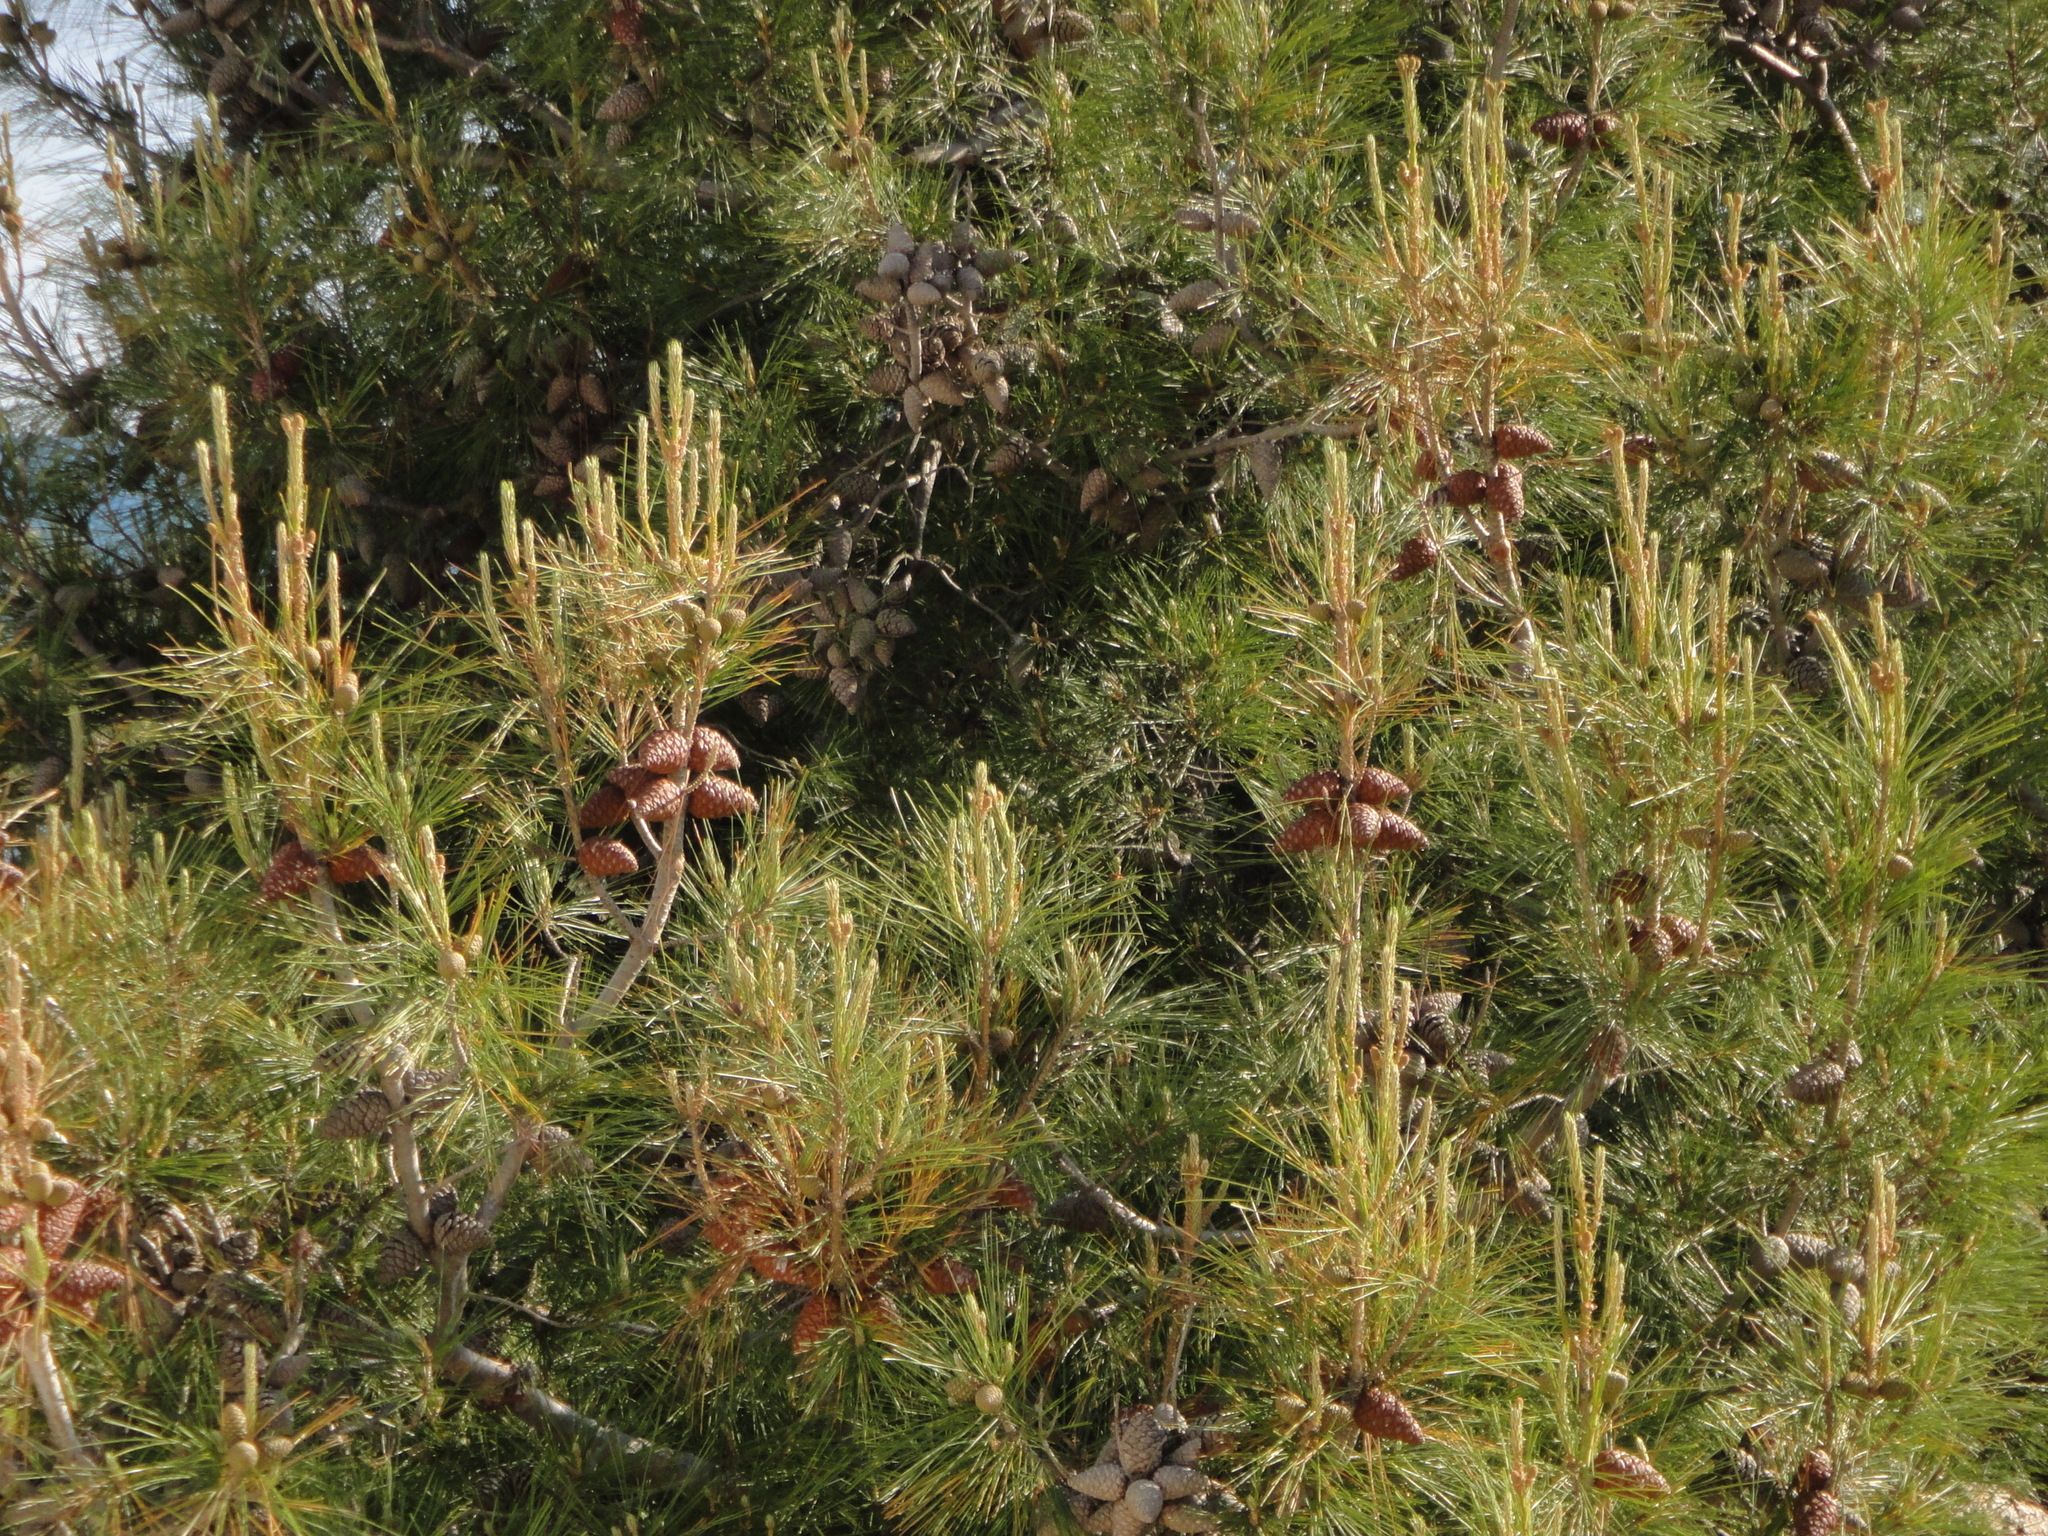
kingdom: Plantae
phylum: Tracheophyta
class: Pinopsida
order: Pinales
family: Pinaceae
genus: Pinus
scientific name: Pinus halepensis
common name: Aleppo pine
